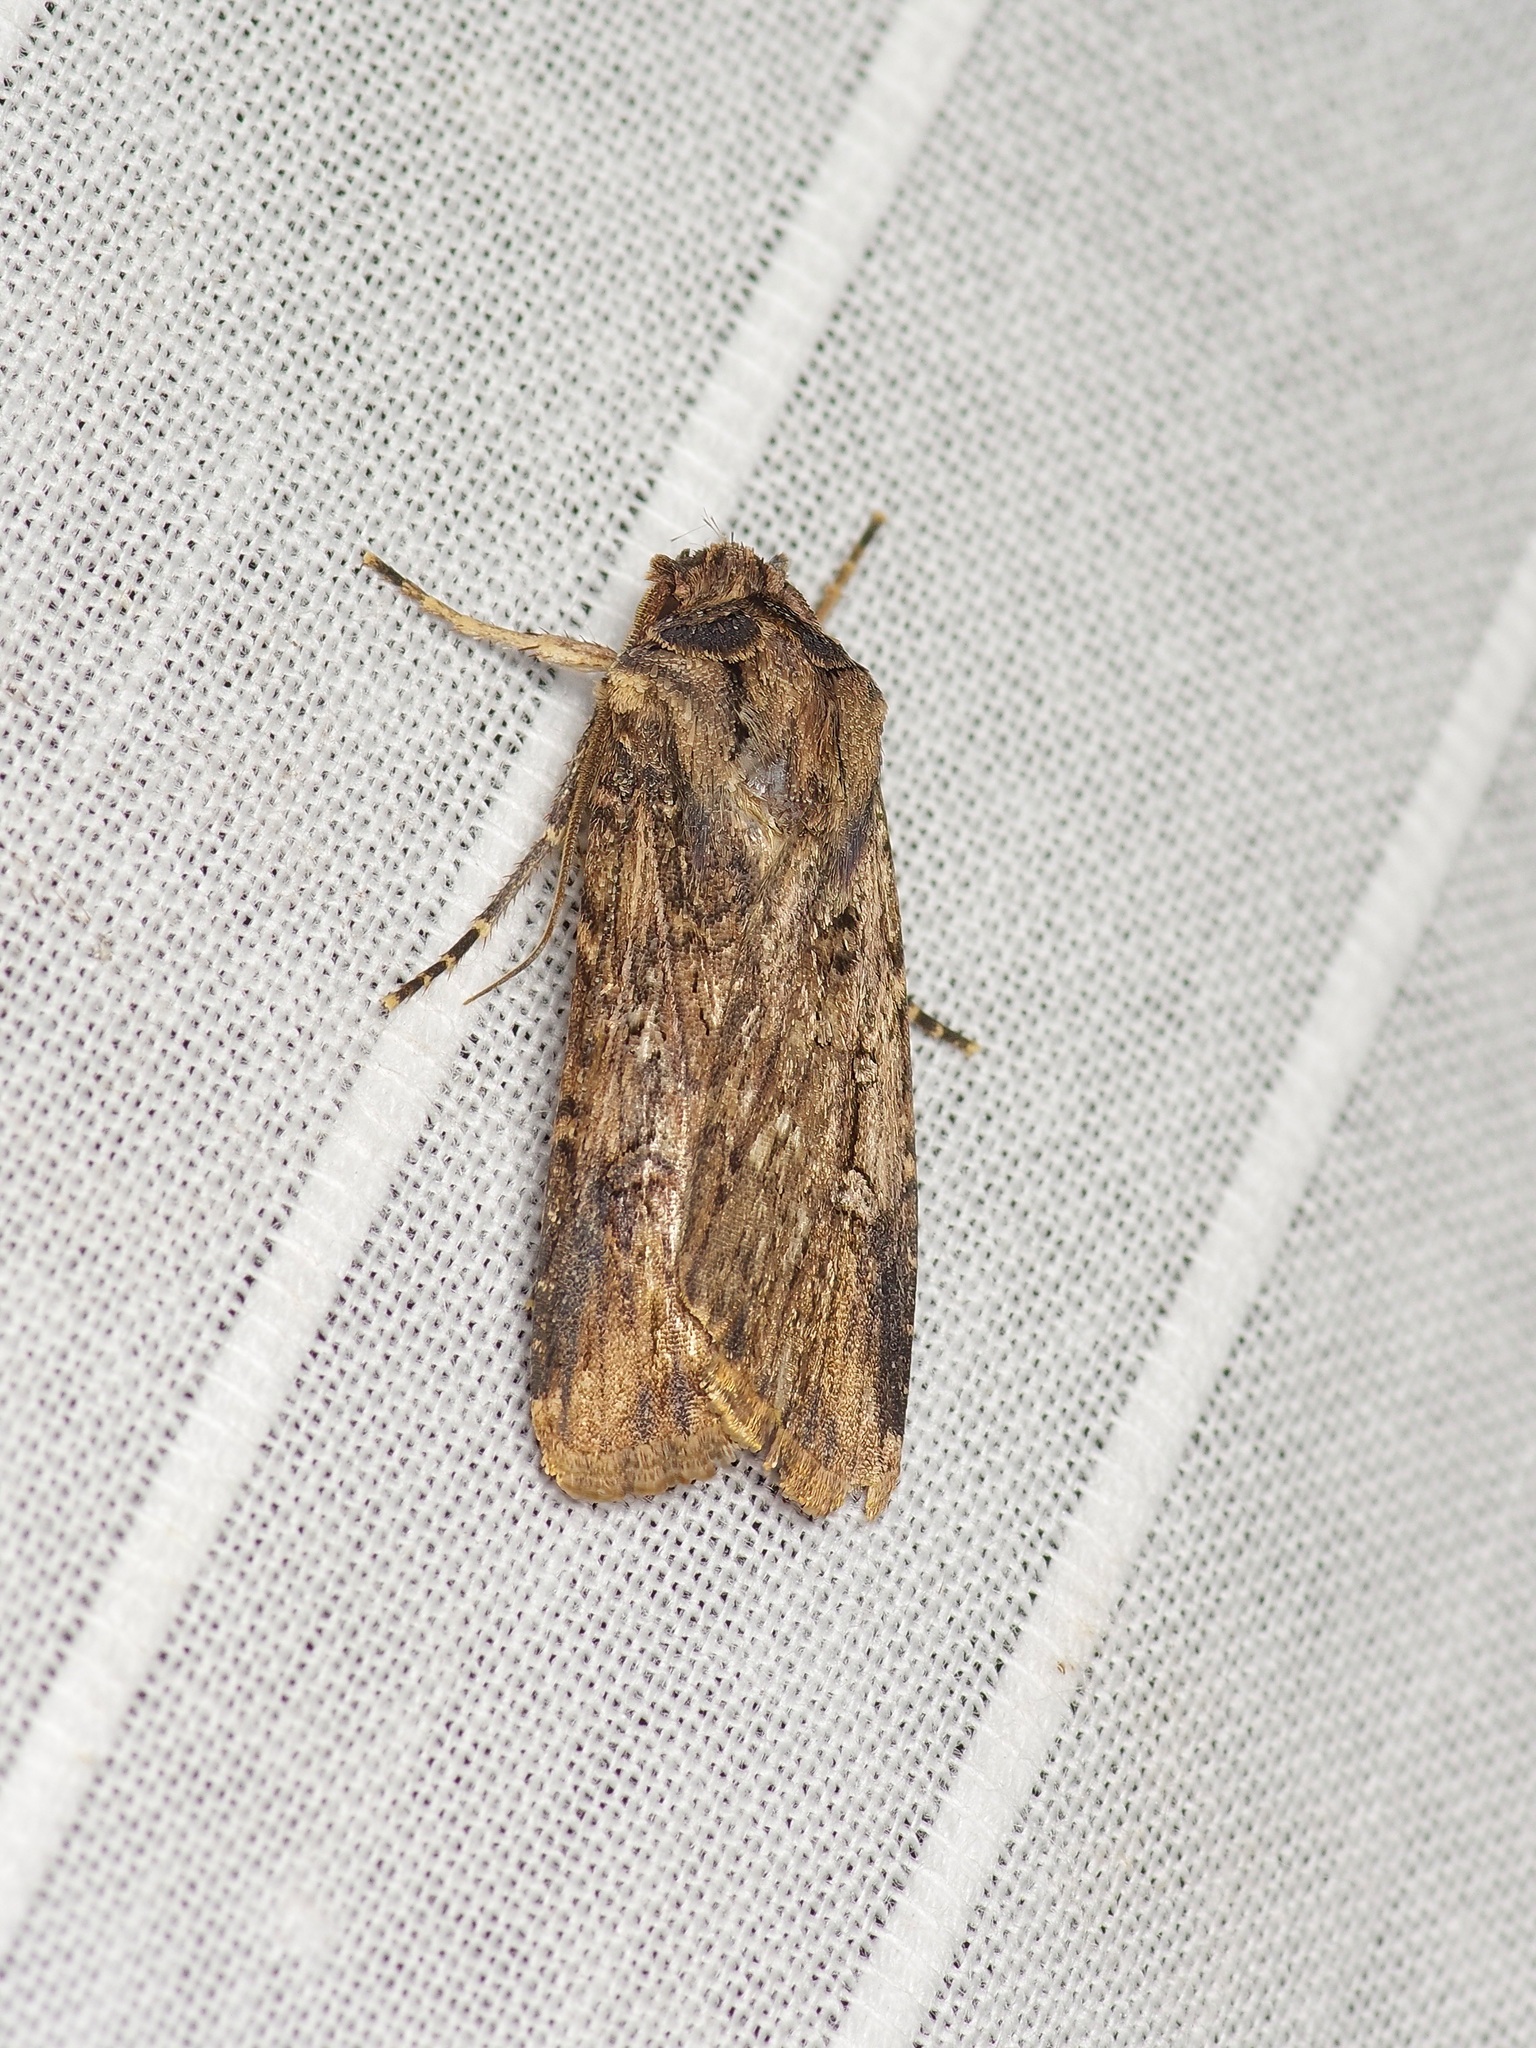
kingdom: Animalia
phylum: Arthropoda
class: Insecta
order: Lepidoptera
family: Noctuidae
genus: Feltia
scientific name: Feltia subterranea
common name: Granulate cutworm
